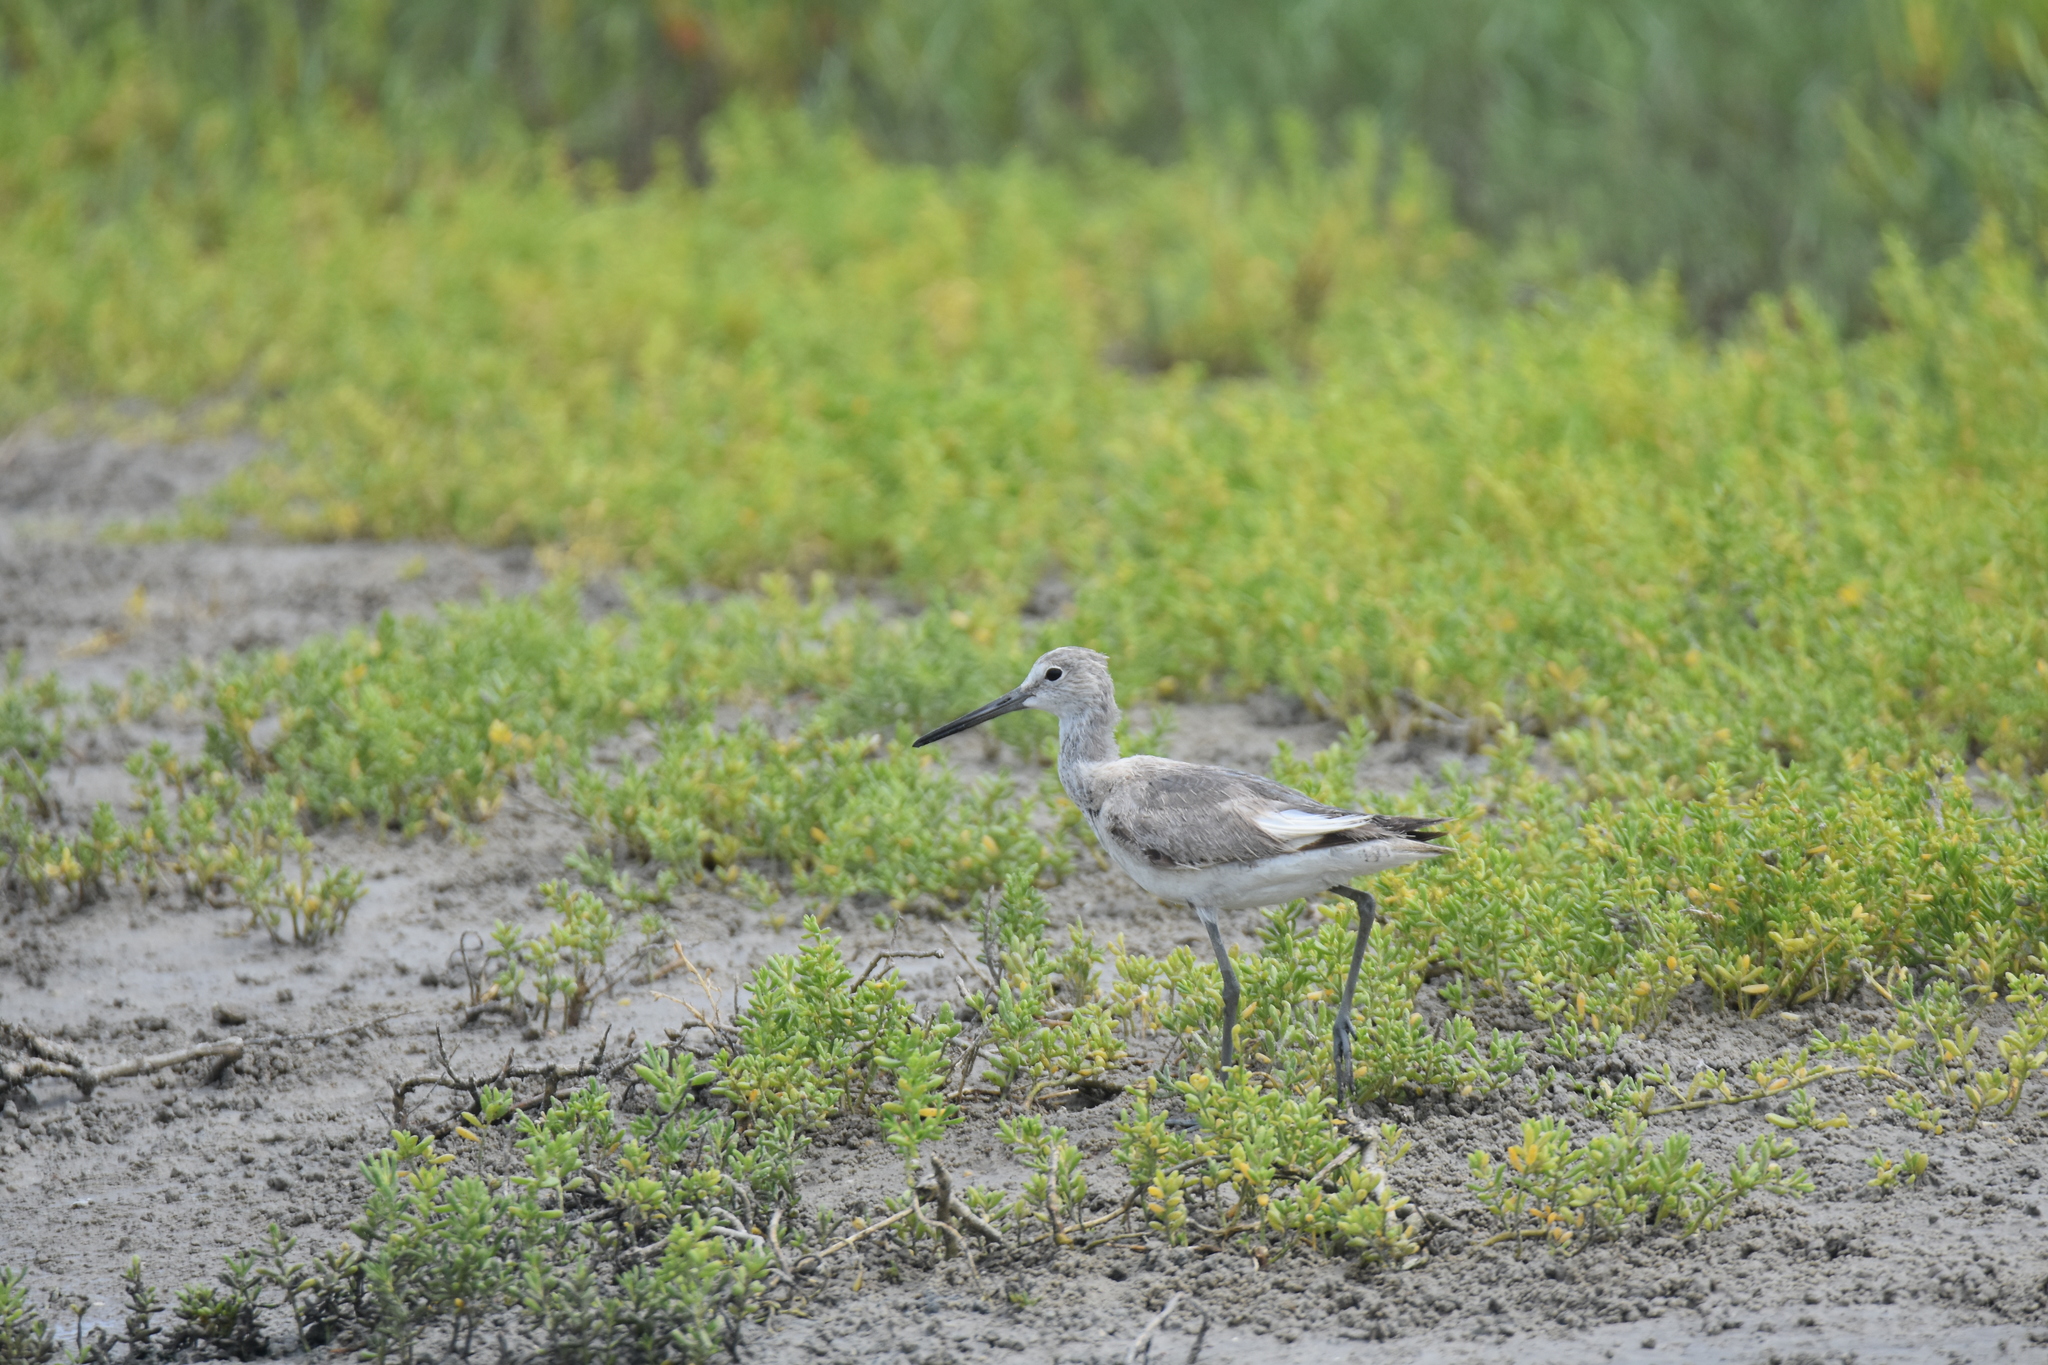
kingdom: Animalia
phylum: Chordata
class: Aves
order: Charadriiformes
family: Scolopacidae
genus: Tringa
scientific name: Tringa semipalmata
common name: Willet
